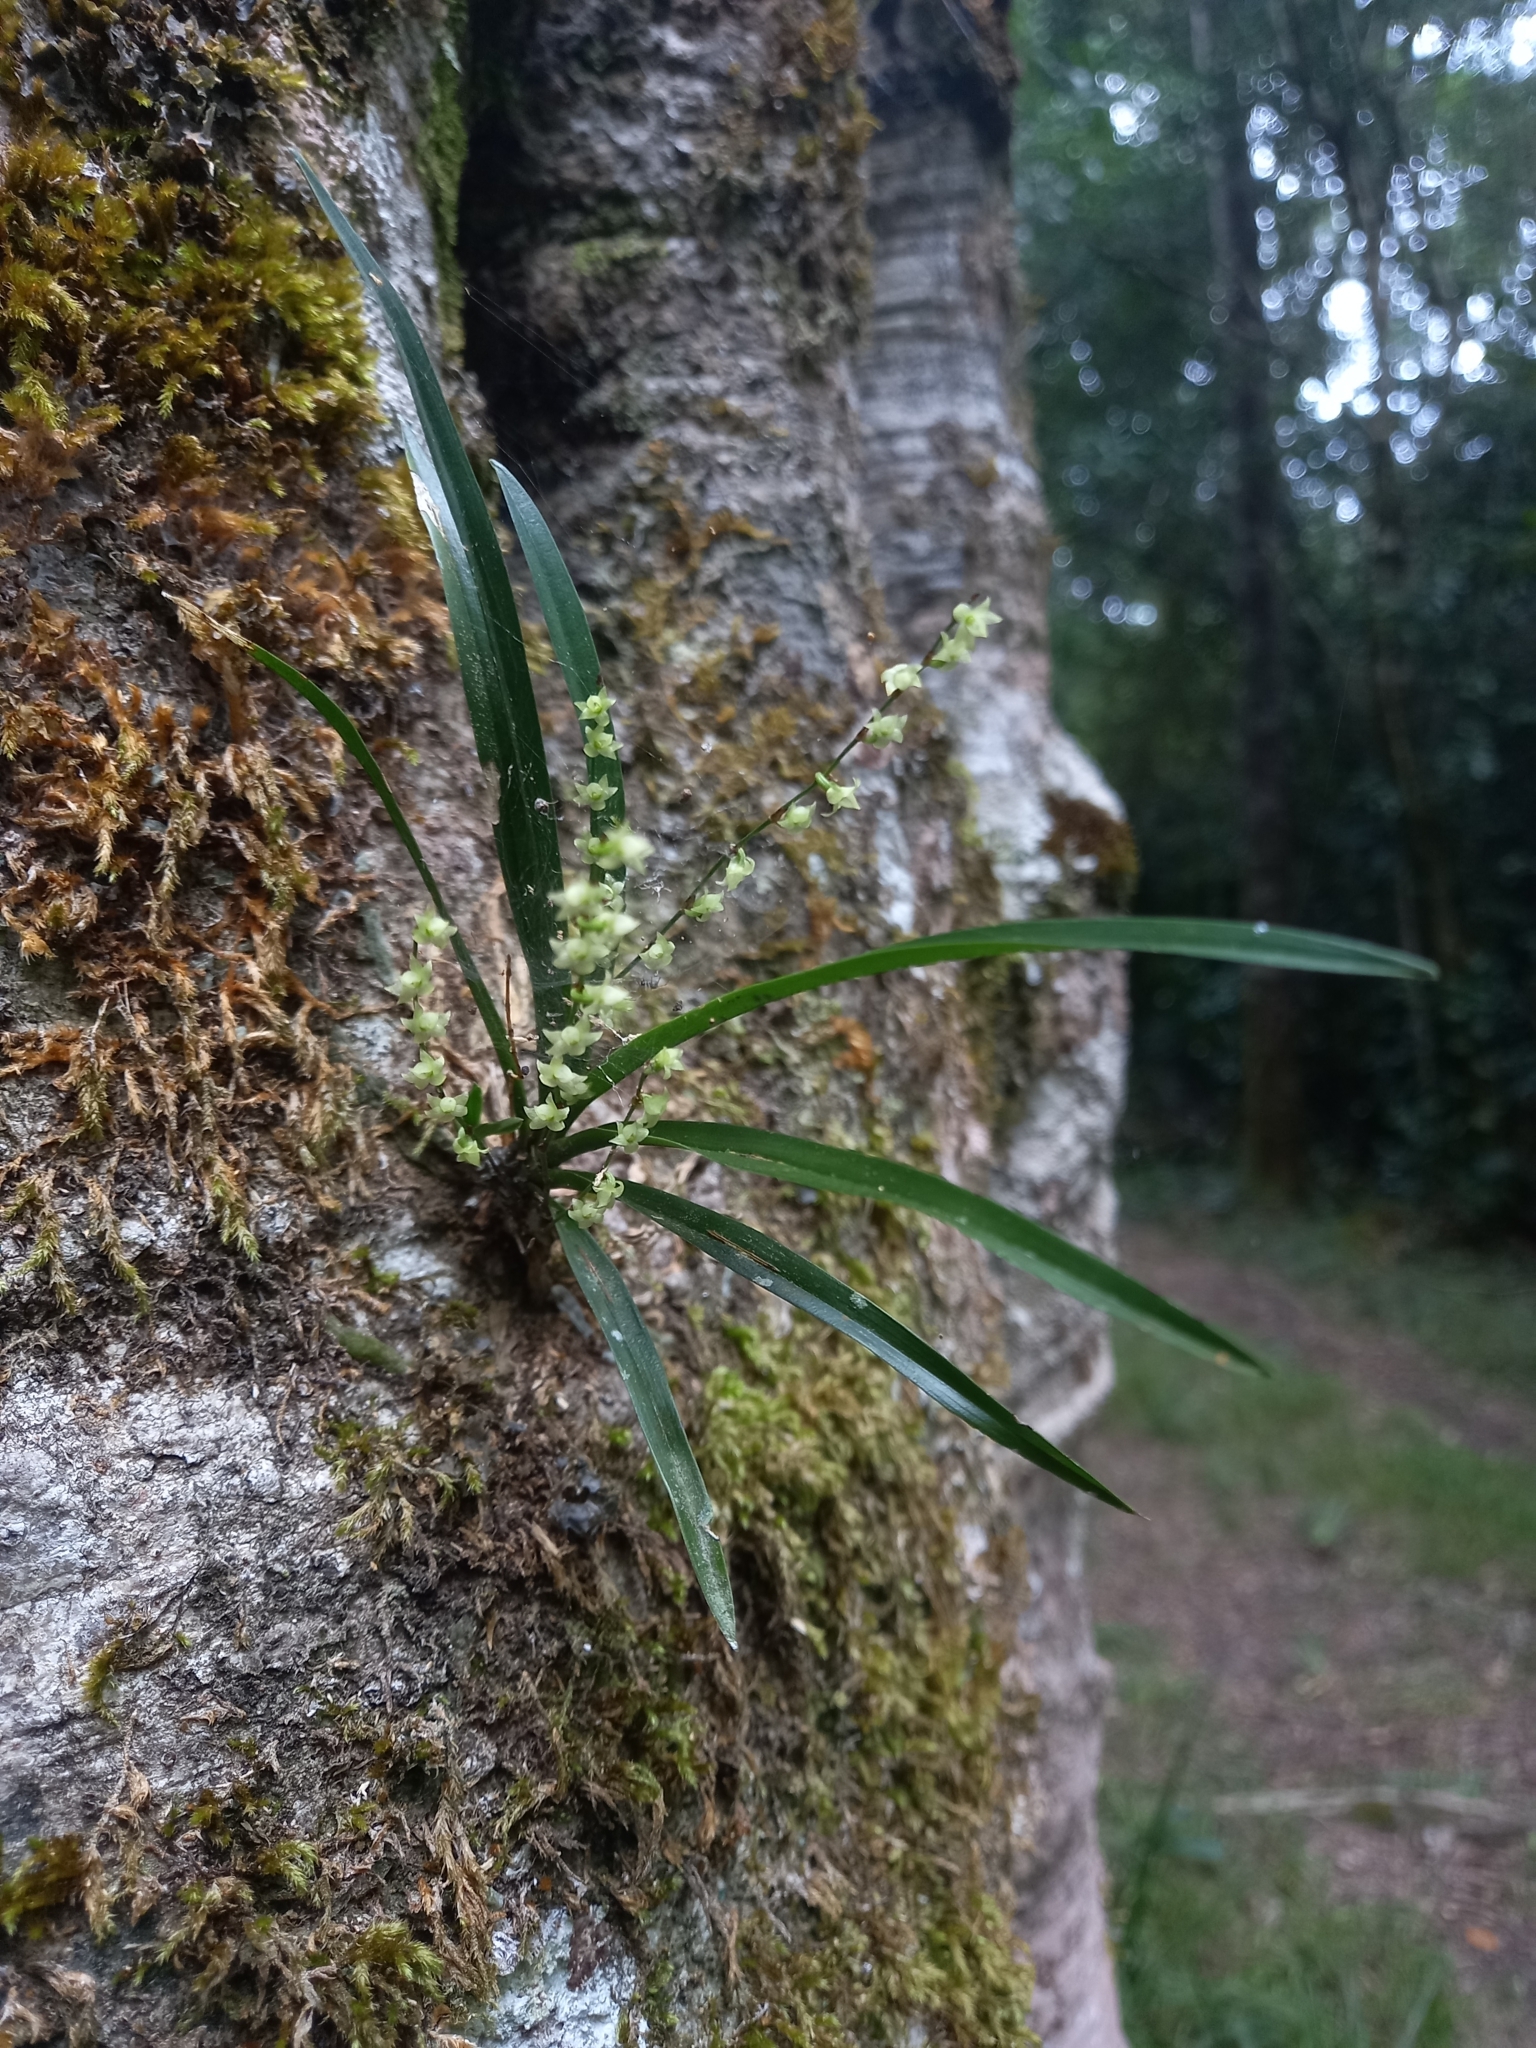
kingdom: Plantae
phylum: Tracheophyta
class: Liliopsida
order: Asparagales
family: Orchidaceae
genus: Angraecum
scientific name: Angraecum pusillum
